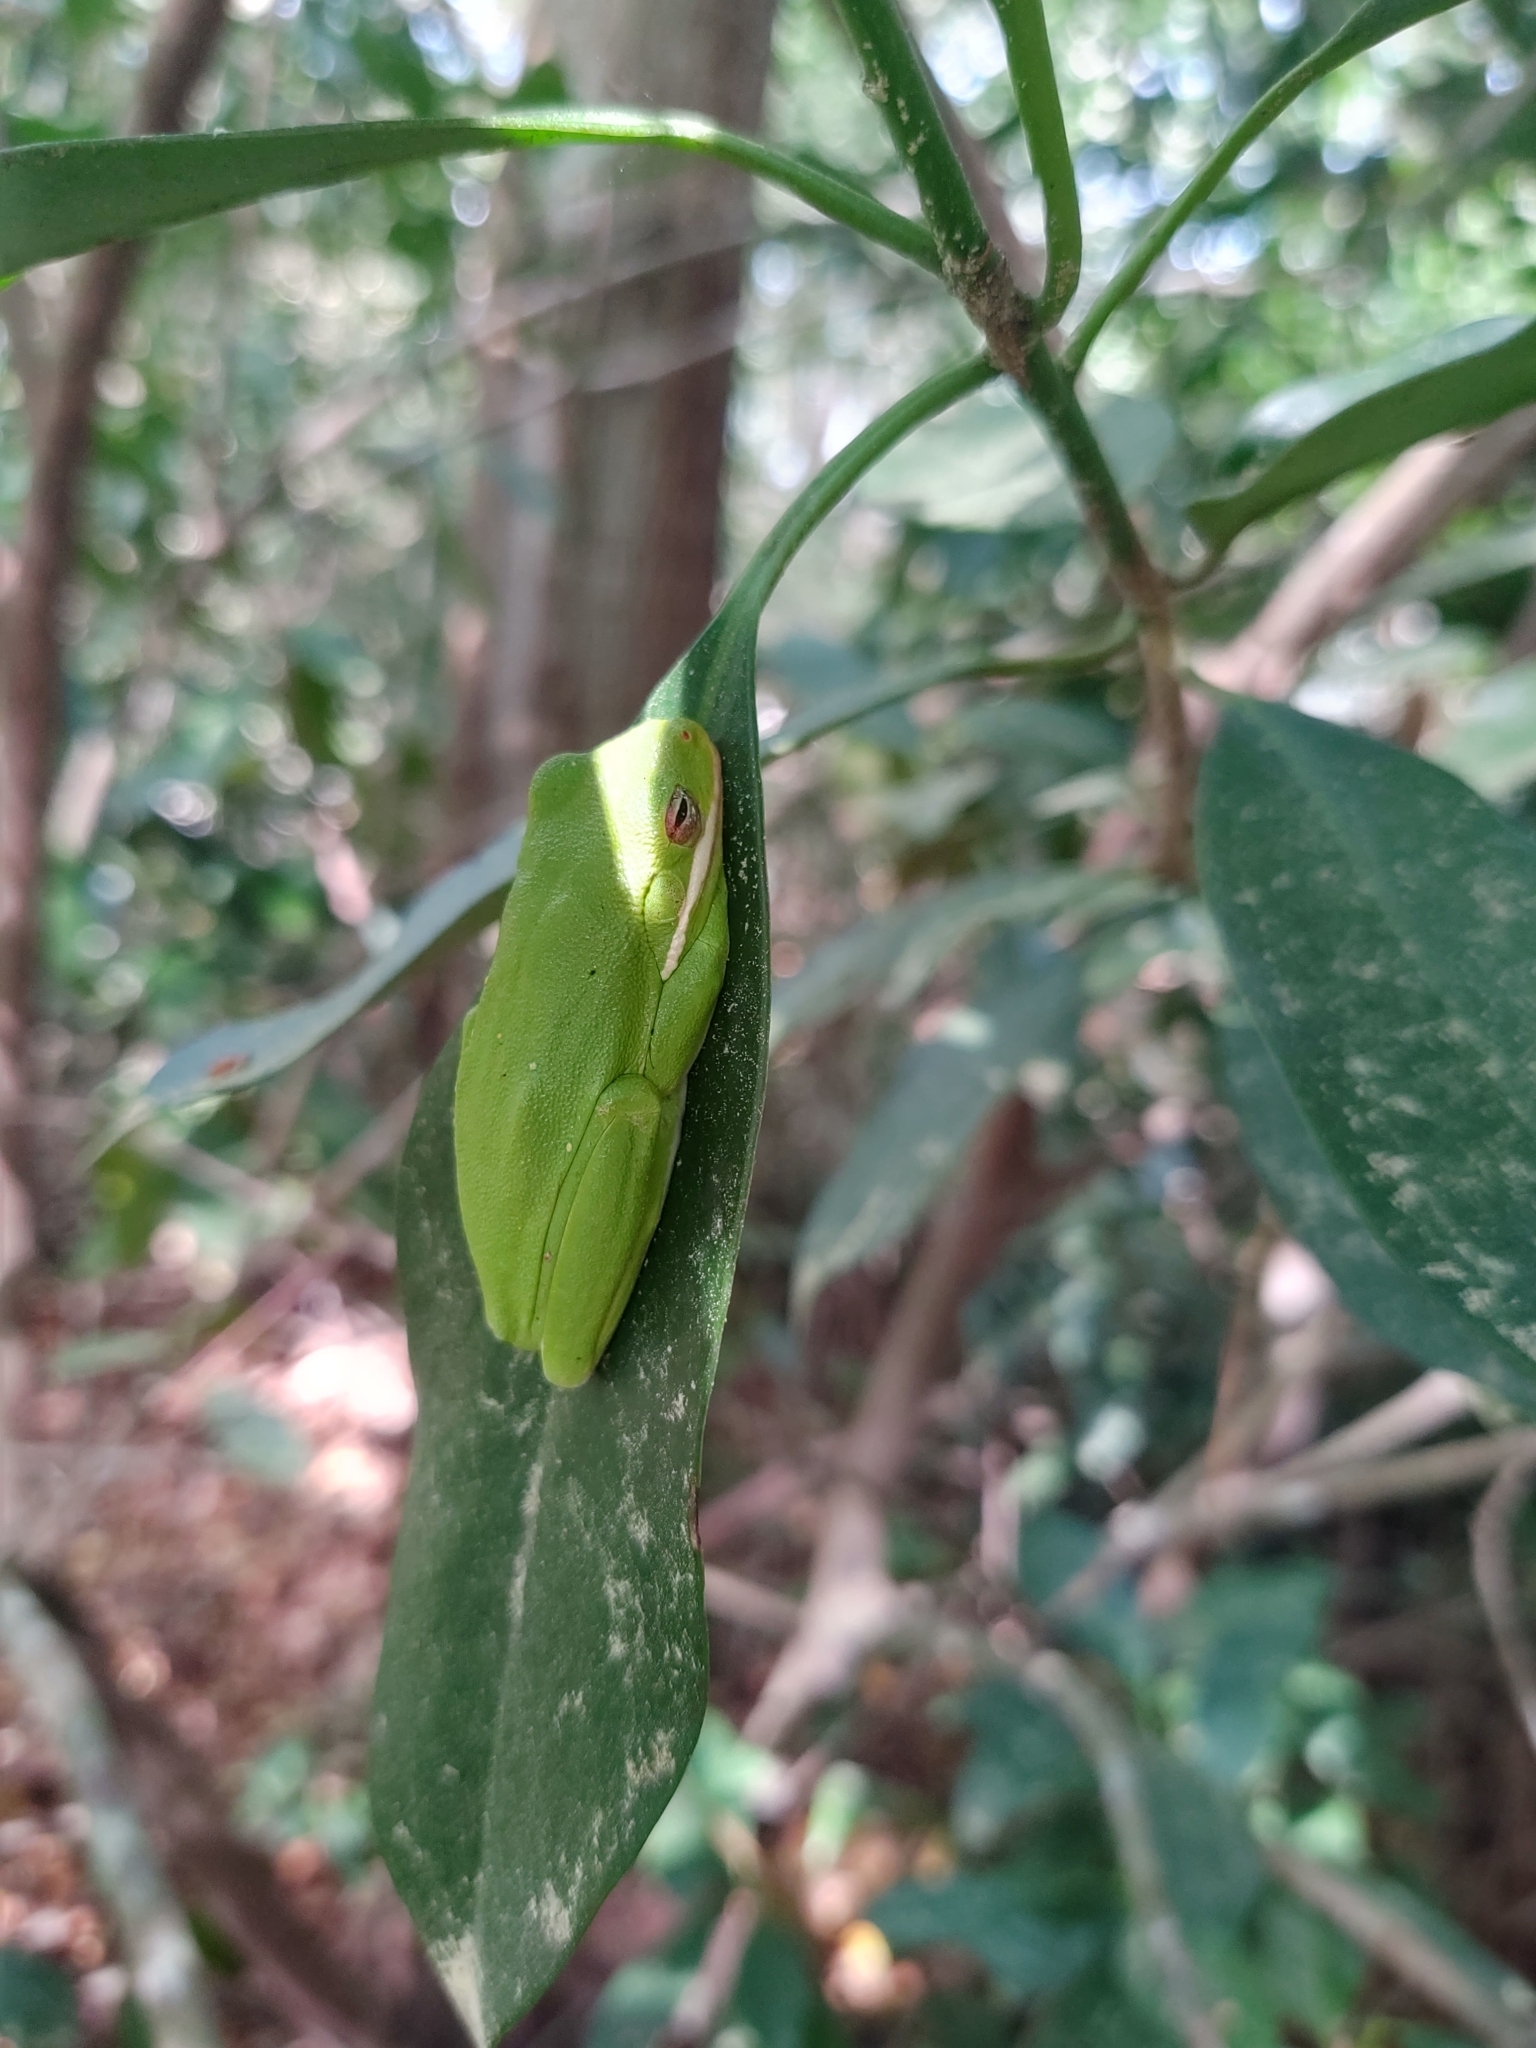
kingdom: Animalia
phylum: Chordata
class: Amphibia
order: Anura
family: Hylidae
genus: Dryophytes
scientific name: Dryophytes cinereus
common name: Green treefrog
